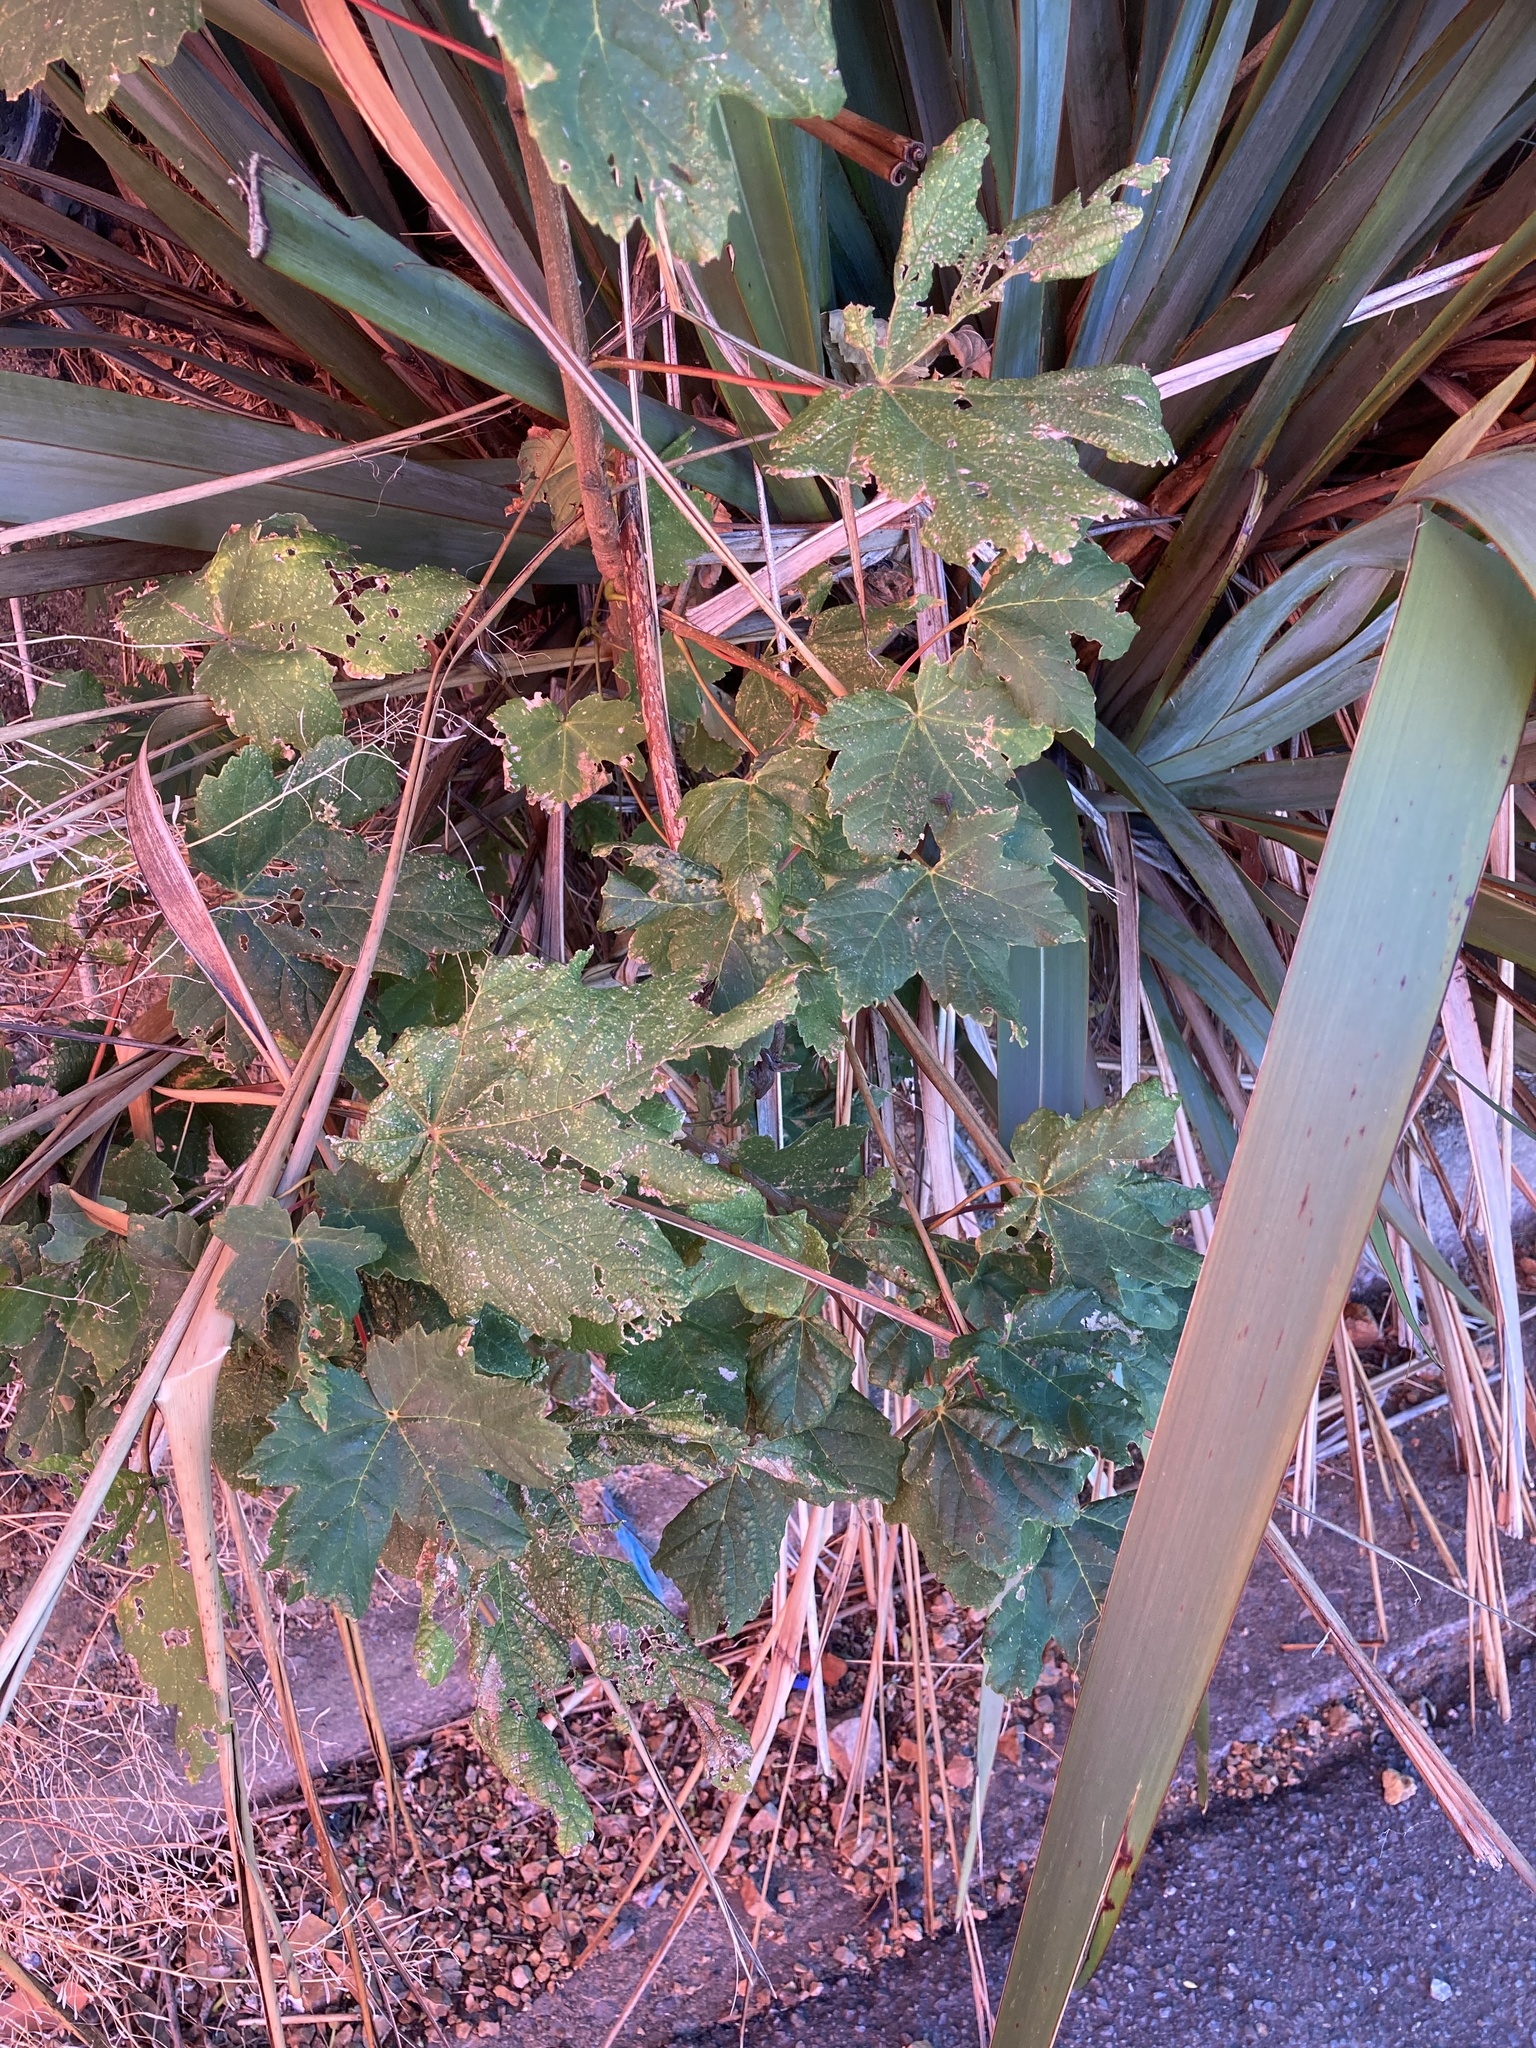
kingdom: Plantae
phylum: Tracheophyta
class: Magnoliopsida
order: Sapindales
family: Sapindaceae
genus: Acer
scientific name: Acer pseudoplatanus
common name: Sycamore
